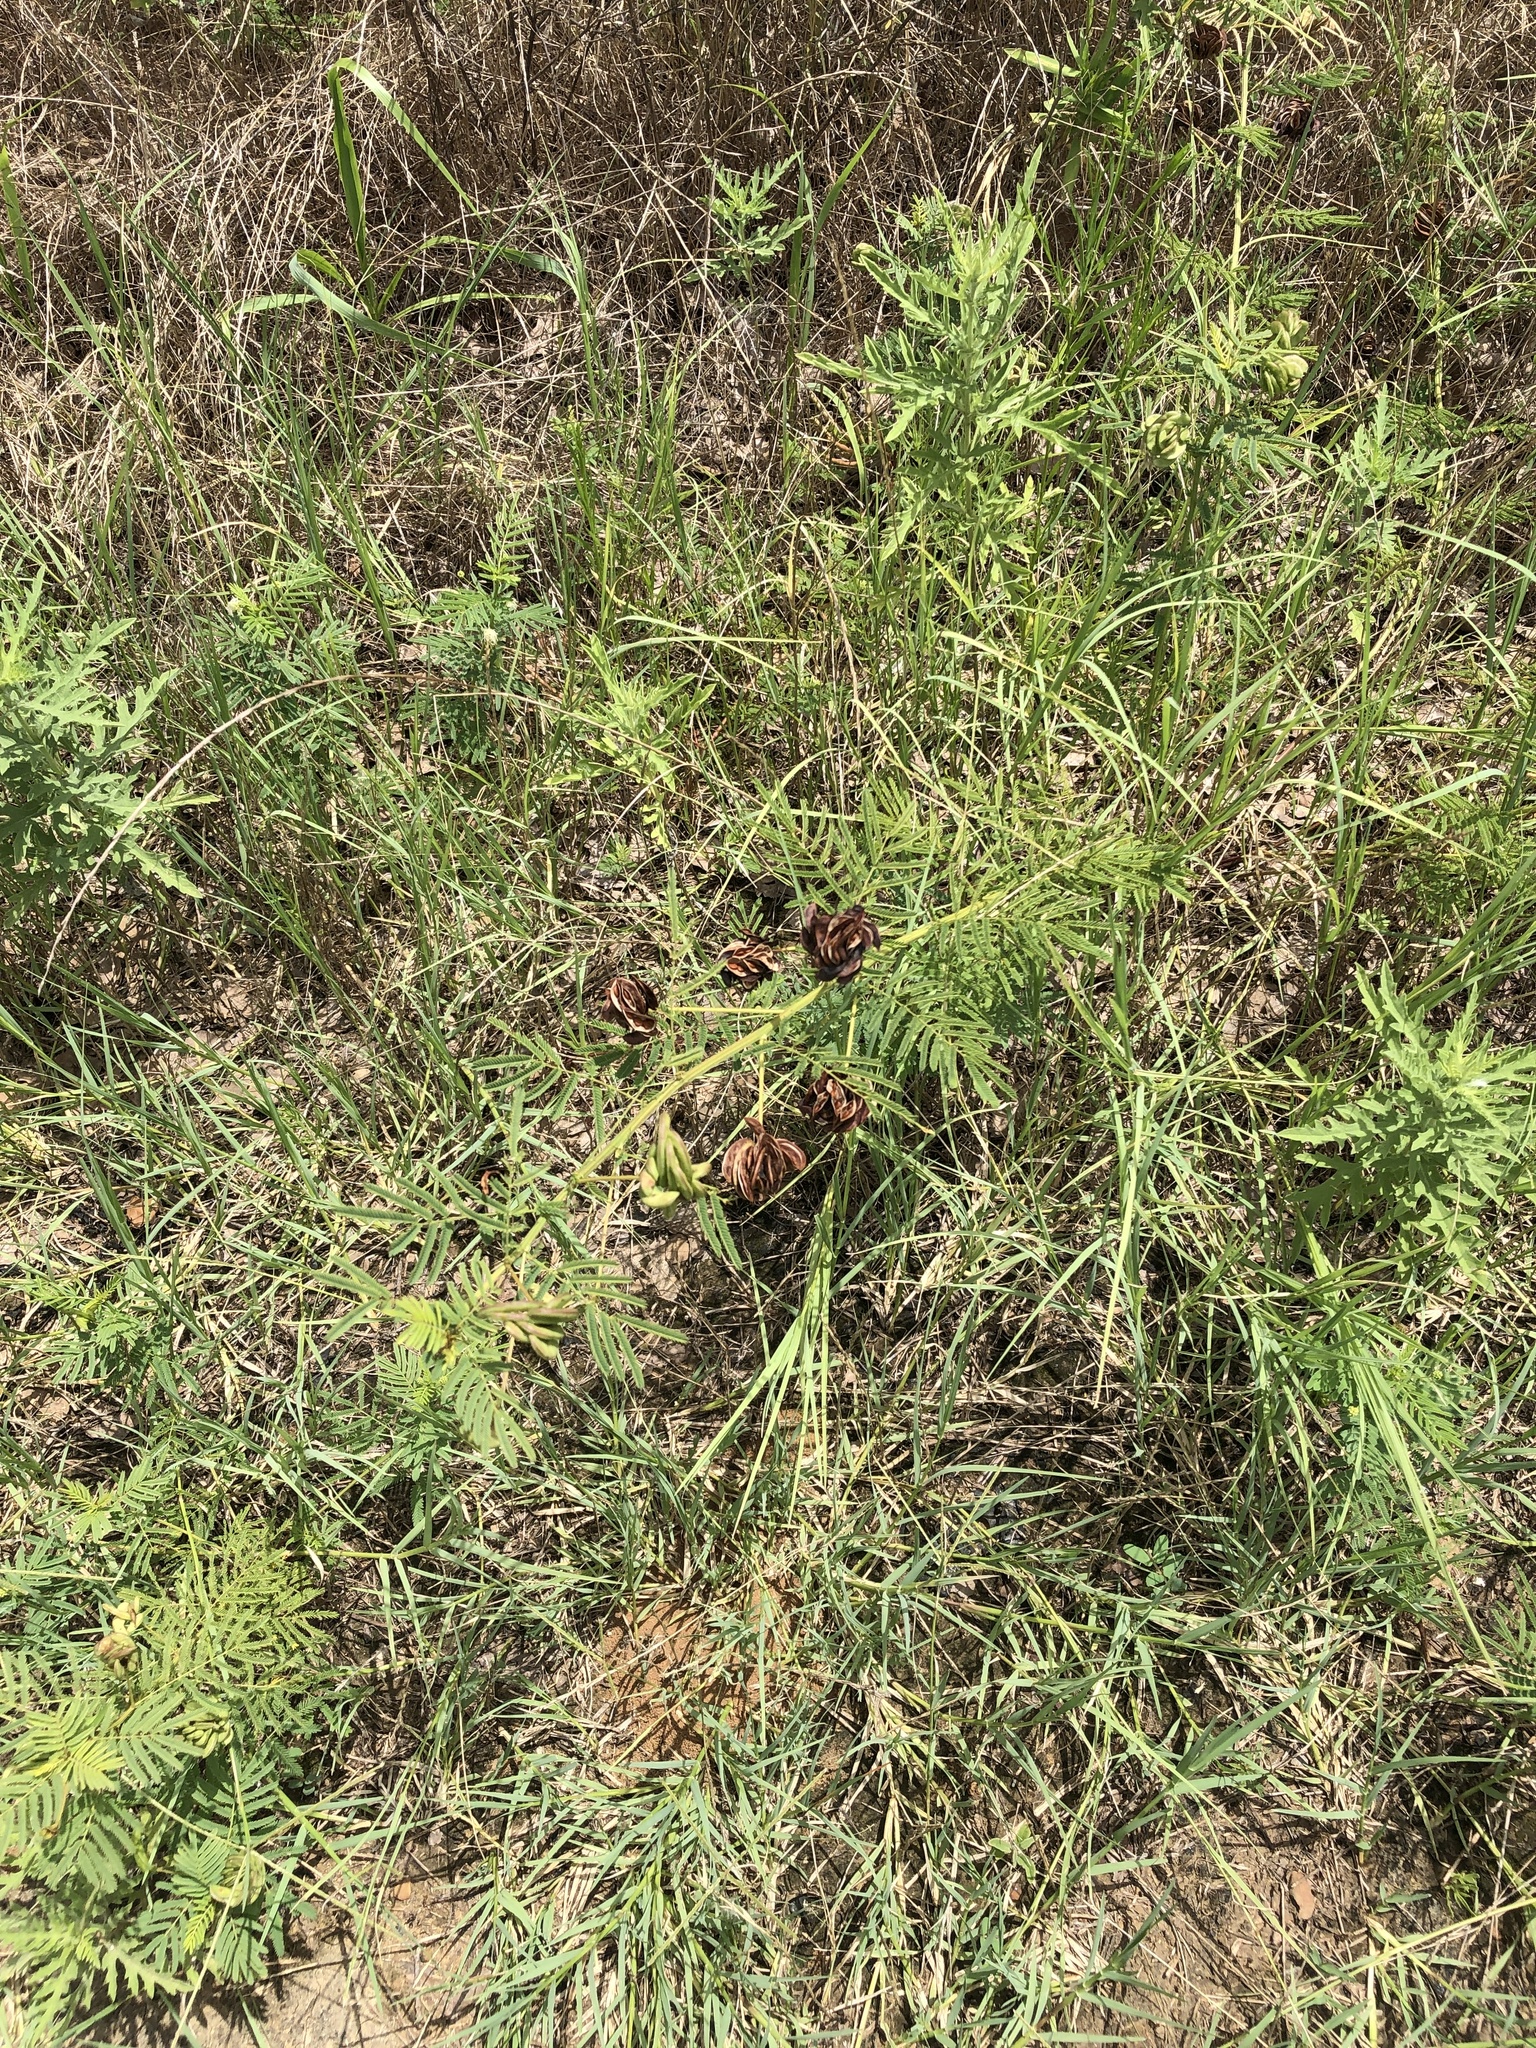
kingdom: Plantae
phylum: Tracheophyta
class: Magnoliopsida
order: Fabales
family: Fabaceae
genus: Desmanthus
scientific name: Desmanthus illinoensis
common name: Illinois bundle-flower
